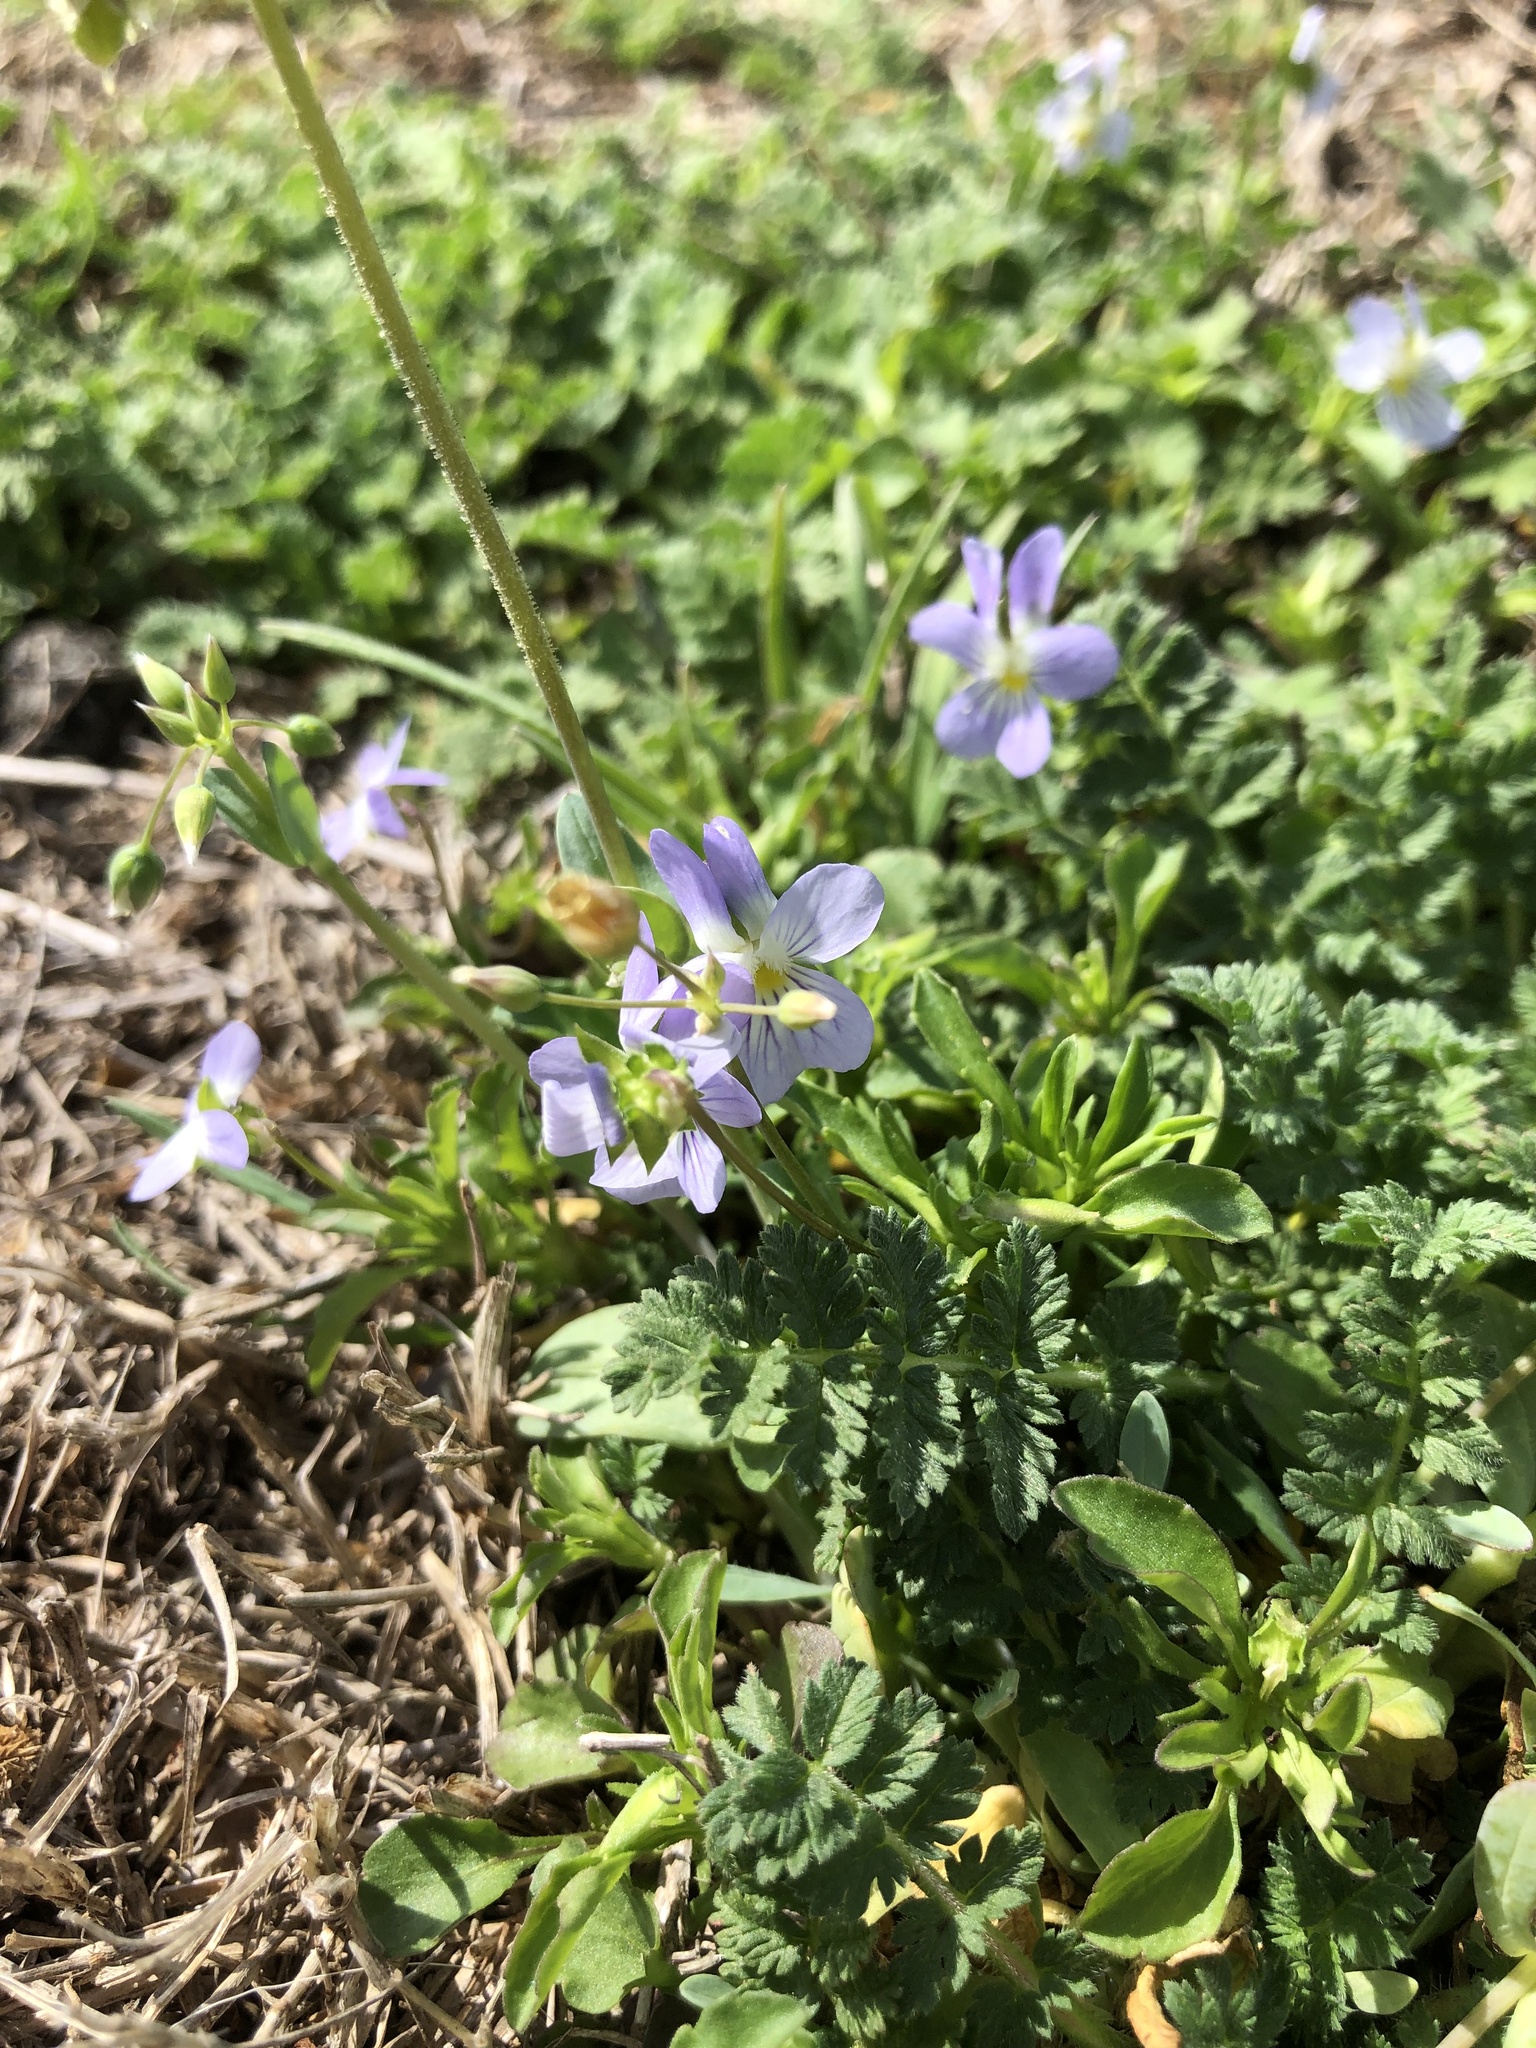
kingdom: Plantae
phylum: Tracheophyta
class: Magnoliopsida
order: Malpighiales
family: Violaceae
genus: Viola
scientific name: Viola rafinesquei
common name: American field pansy
